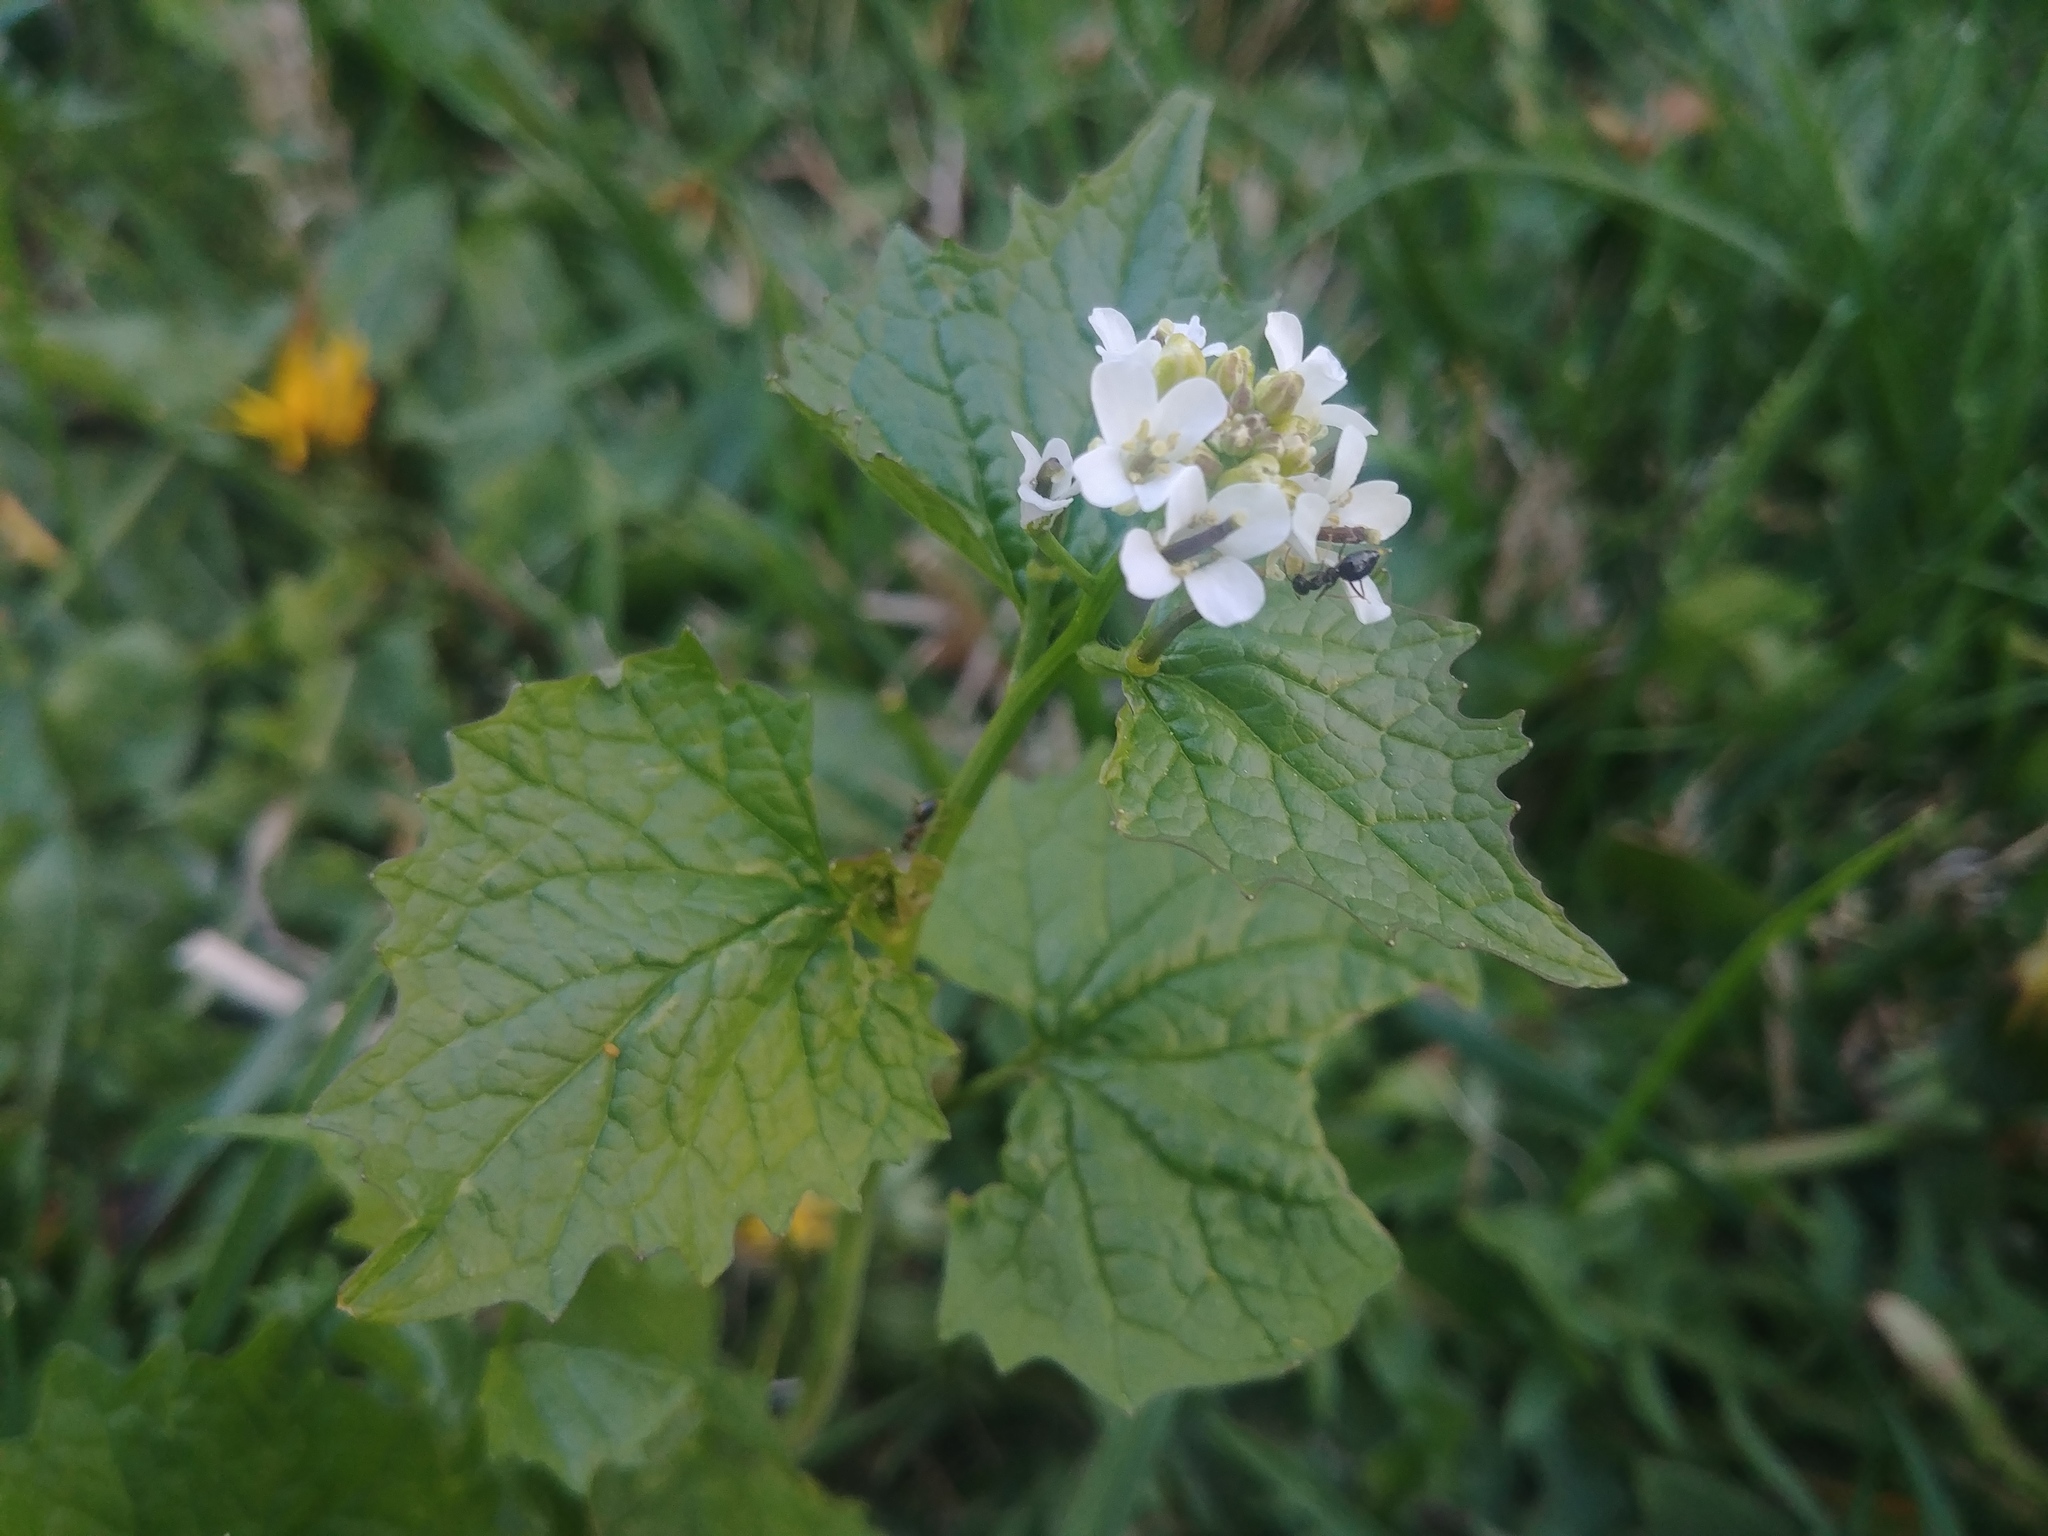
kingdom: Plantae
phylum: Tracheophyta
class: Magnoliopsida
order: Brassicales
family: Brassicaceae
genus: Alliaria
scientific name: Alliaria petiolata
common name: Garlic mustard
